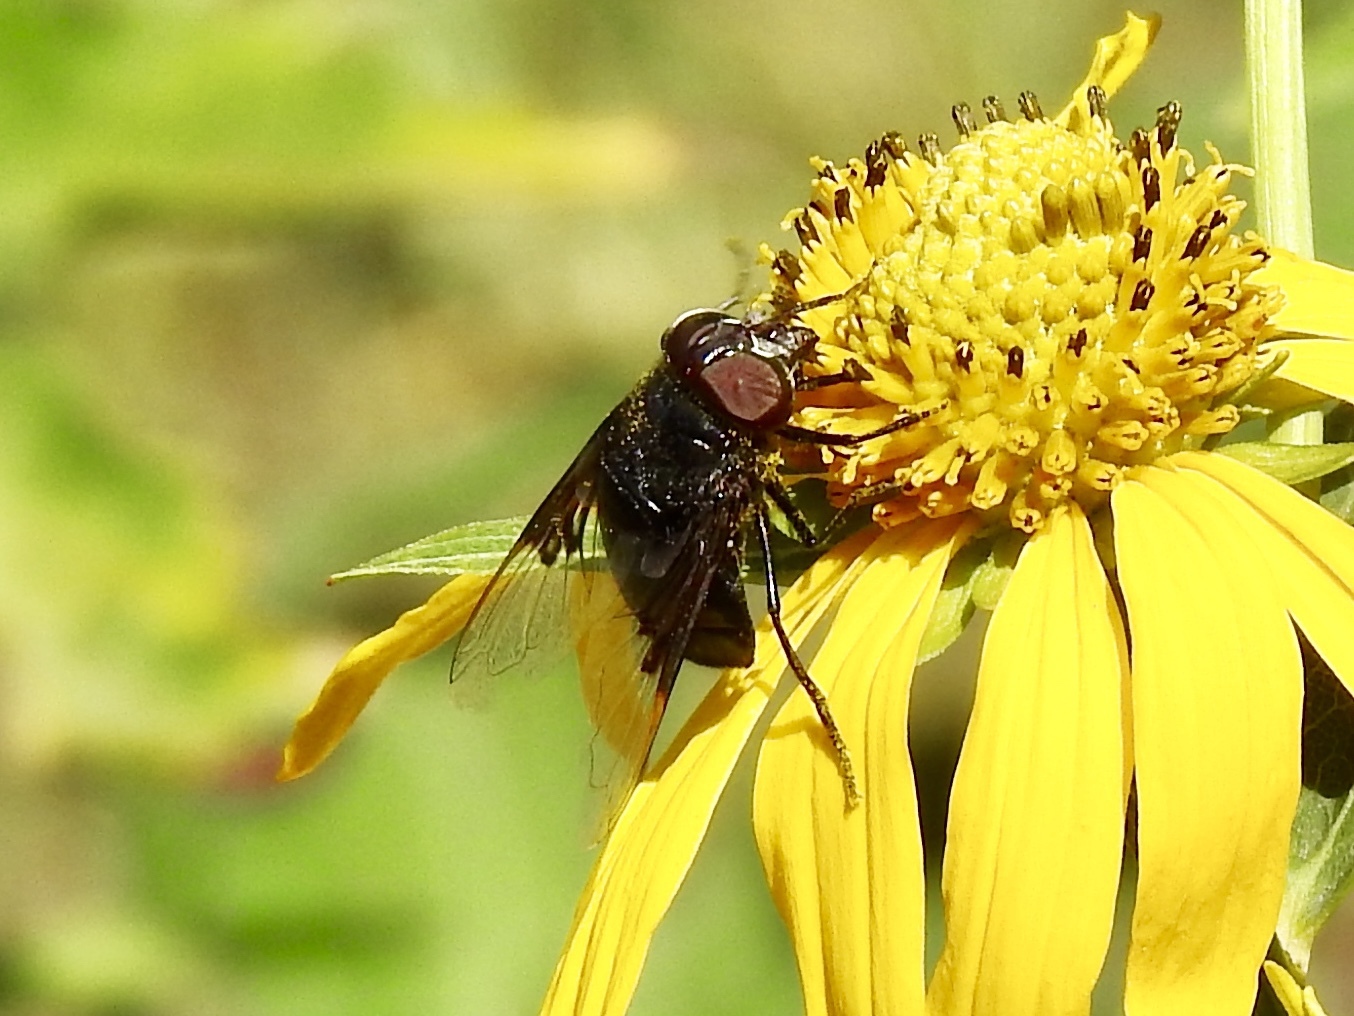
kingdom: Animalia
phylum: Arthropoda
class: Insecta
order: Diptera
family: Syrphidae
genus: Copestylum
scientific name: Copestylum mexicanum
